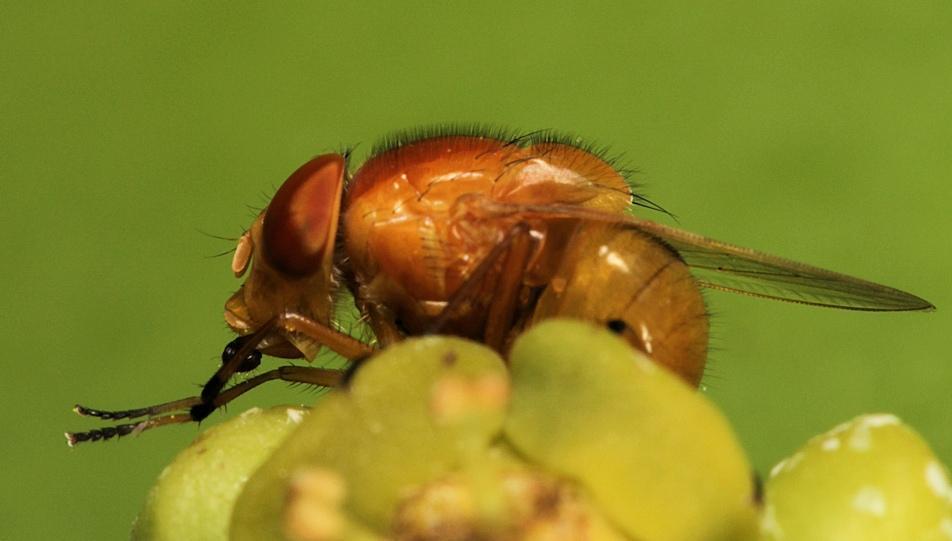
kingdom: Animalia
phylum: Arthropoda
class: Insecta
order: Diptera
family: Calliphoridae
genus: Stegosoma
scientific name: Stegosoma vinculatum
